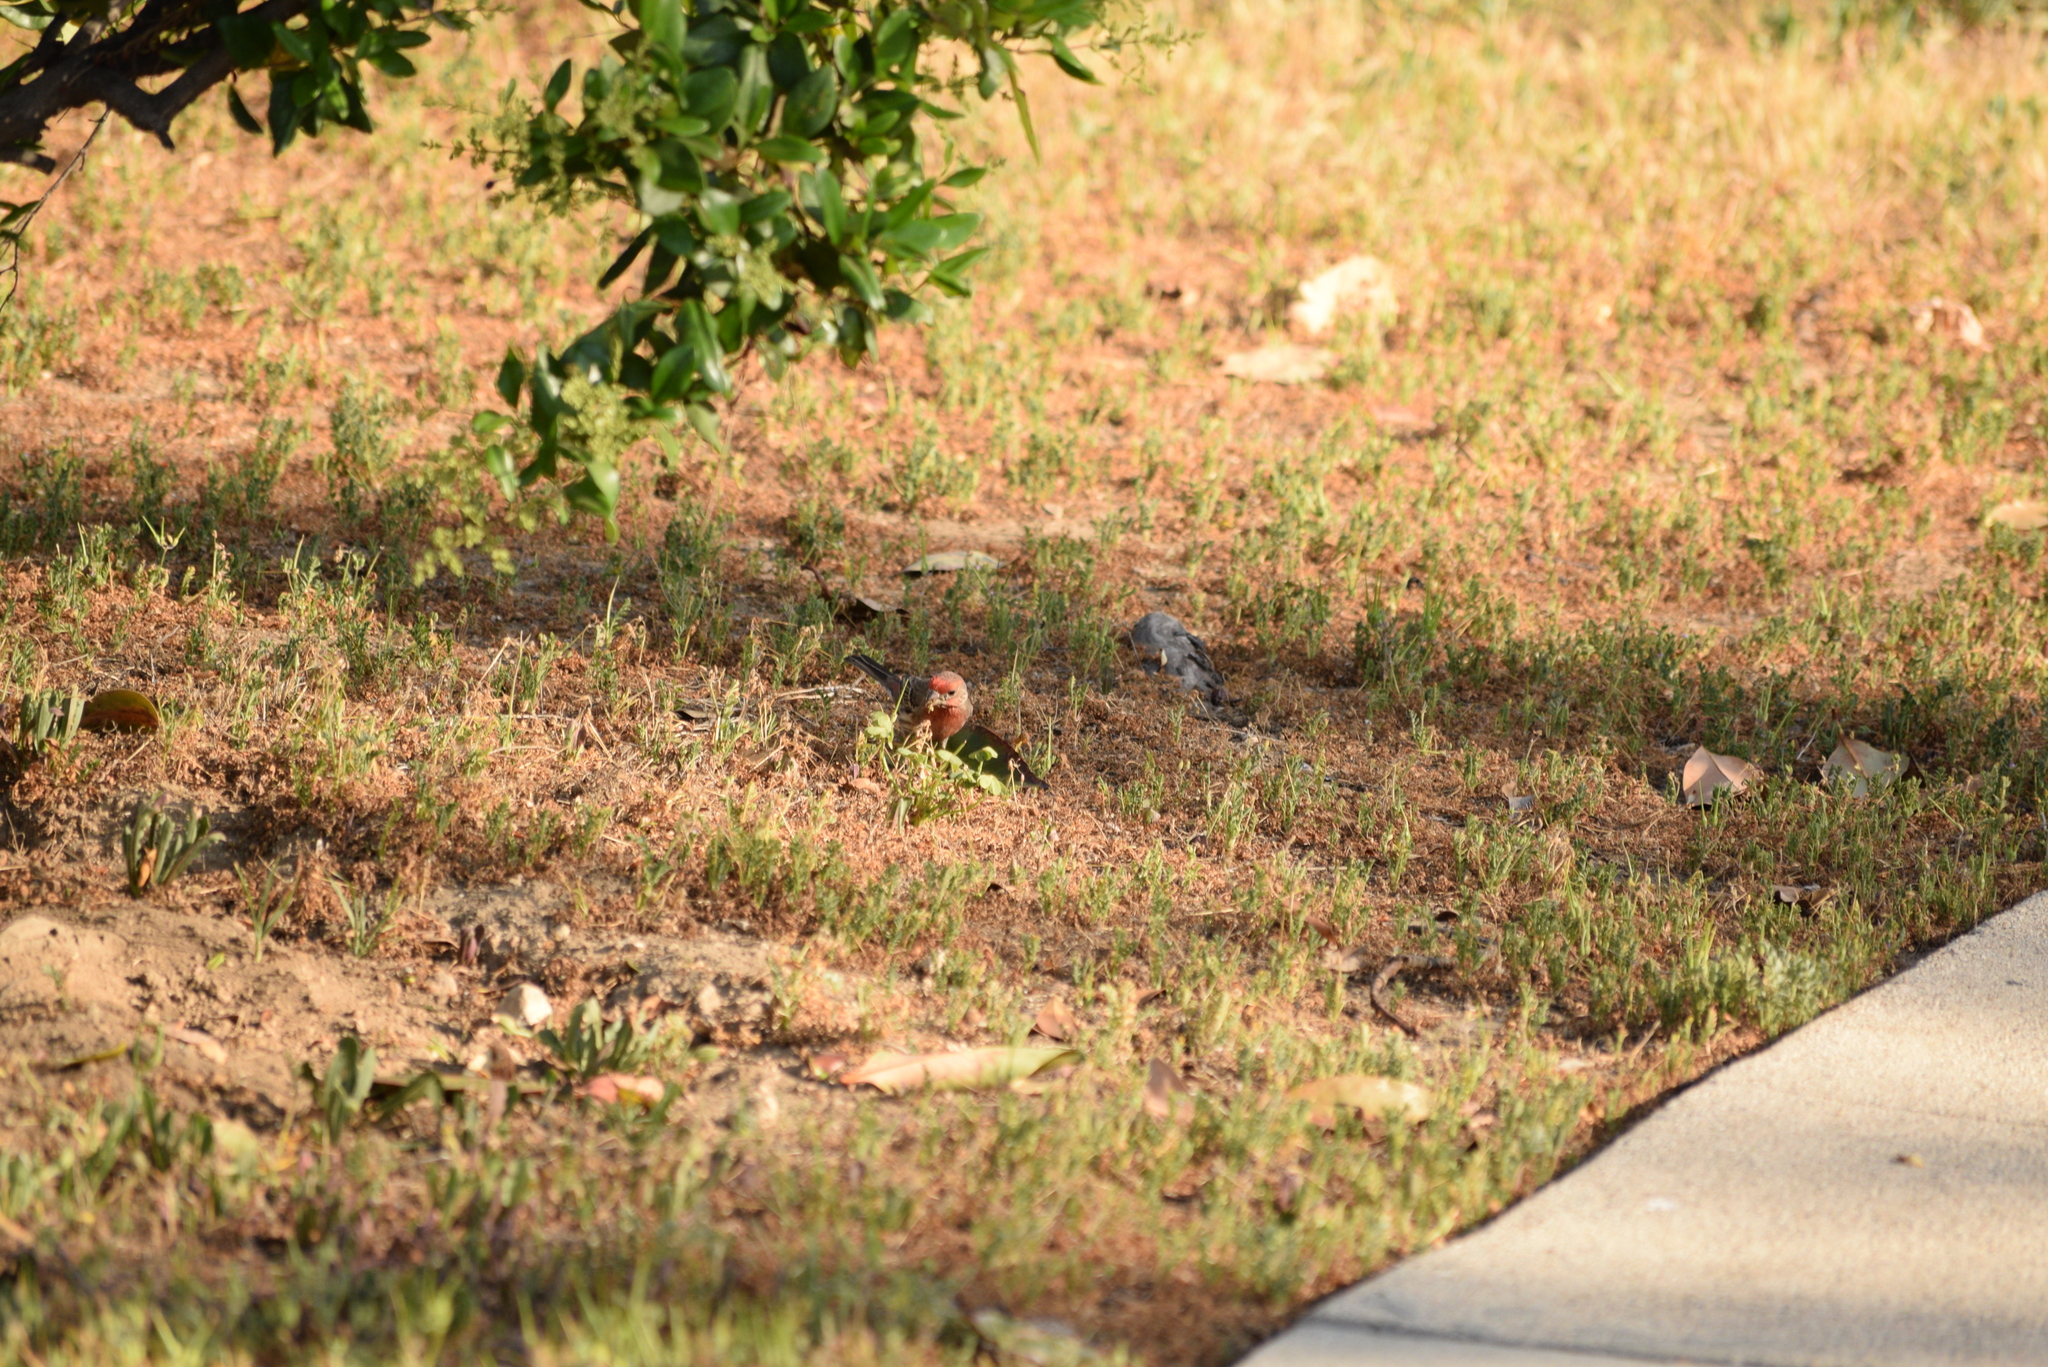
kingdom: Animalia
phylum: Chordata
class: Aves
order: Passeriformes
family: Fringillidae
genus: Haemorhous
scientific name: Haemorhous mexicanus
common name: House finch
